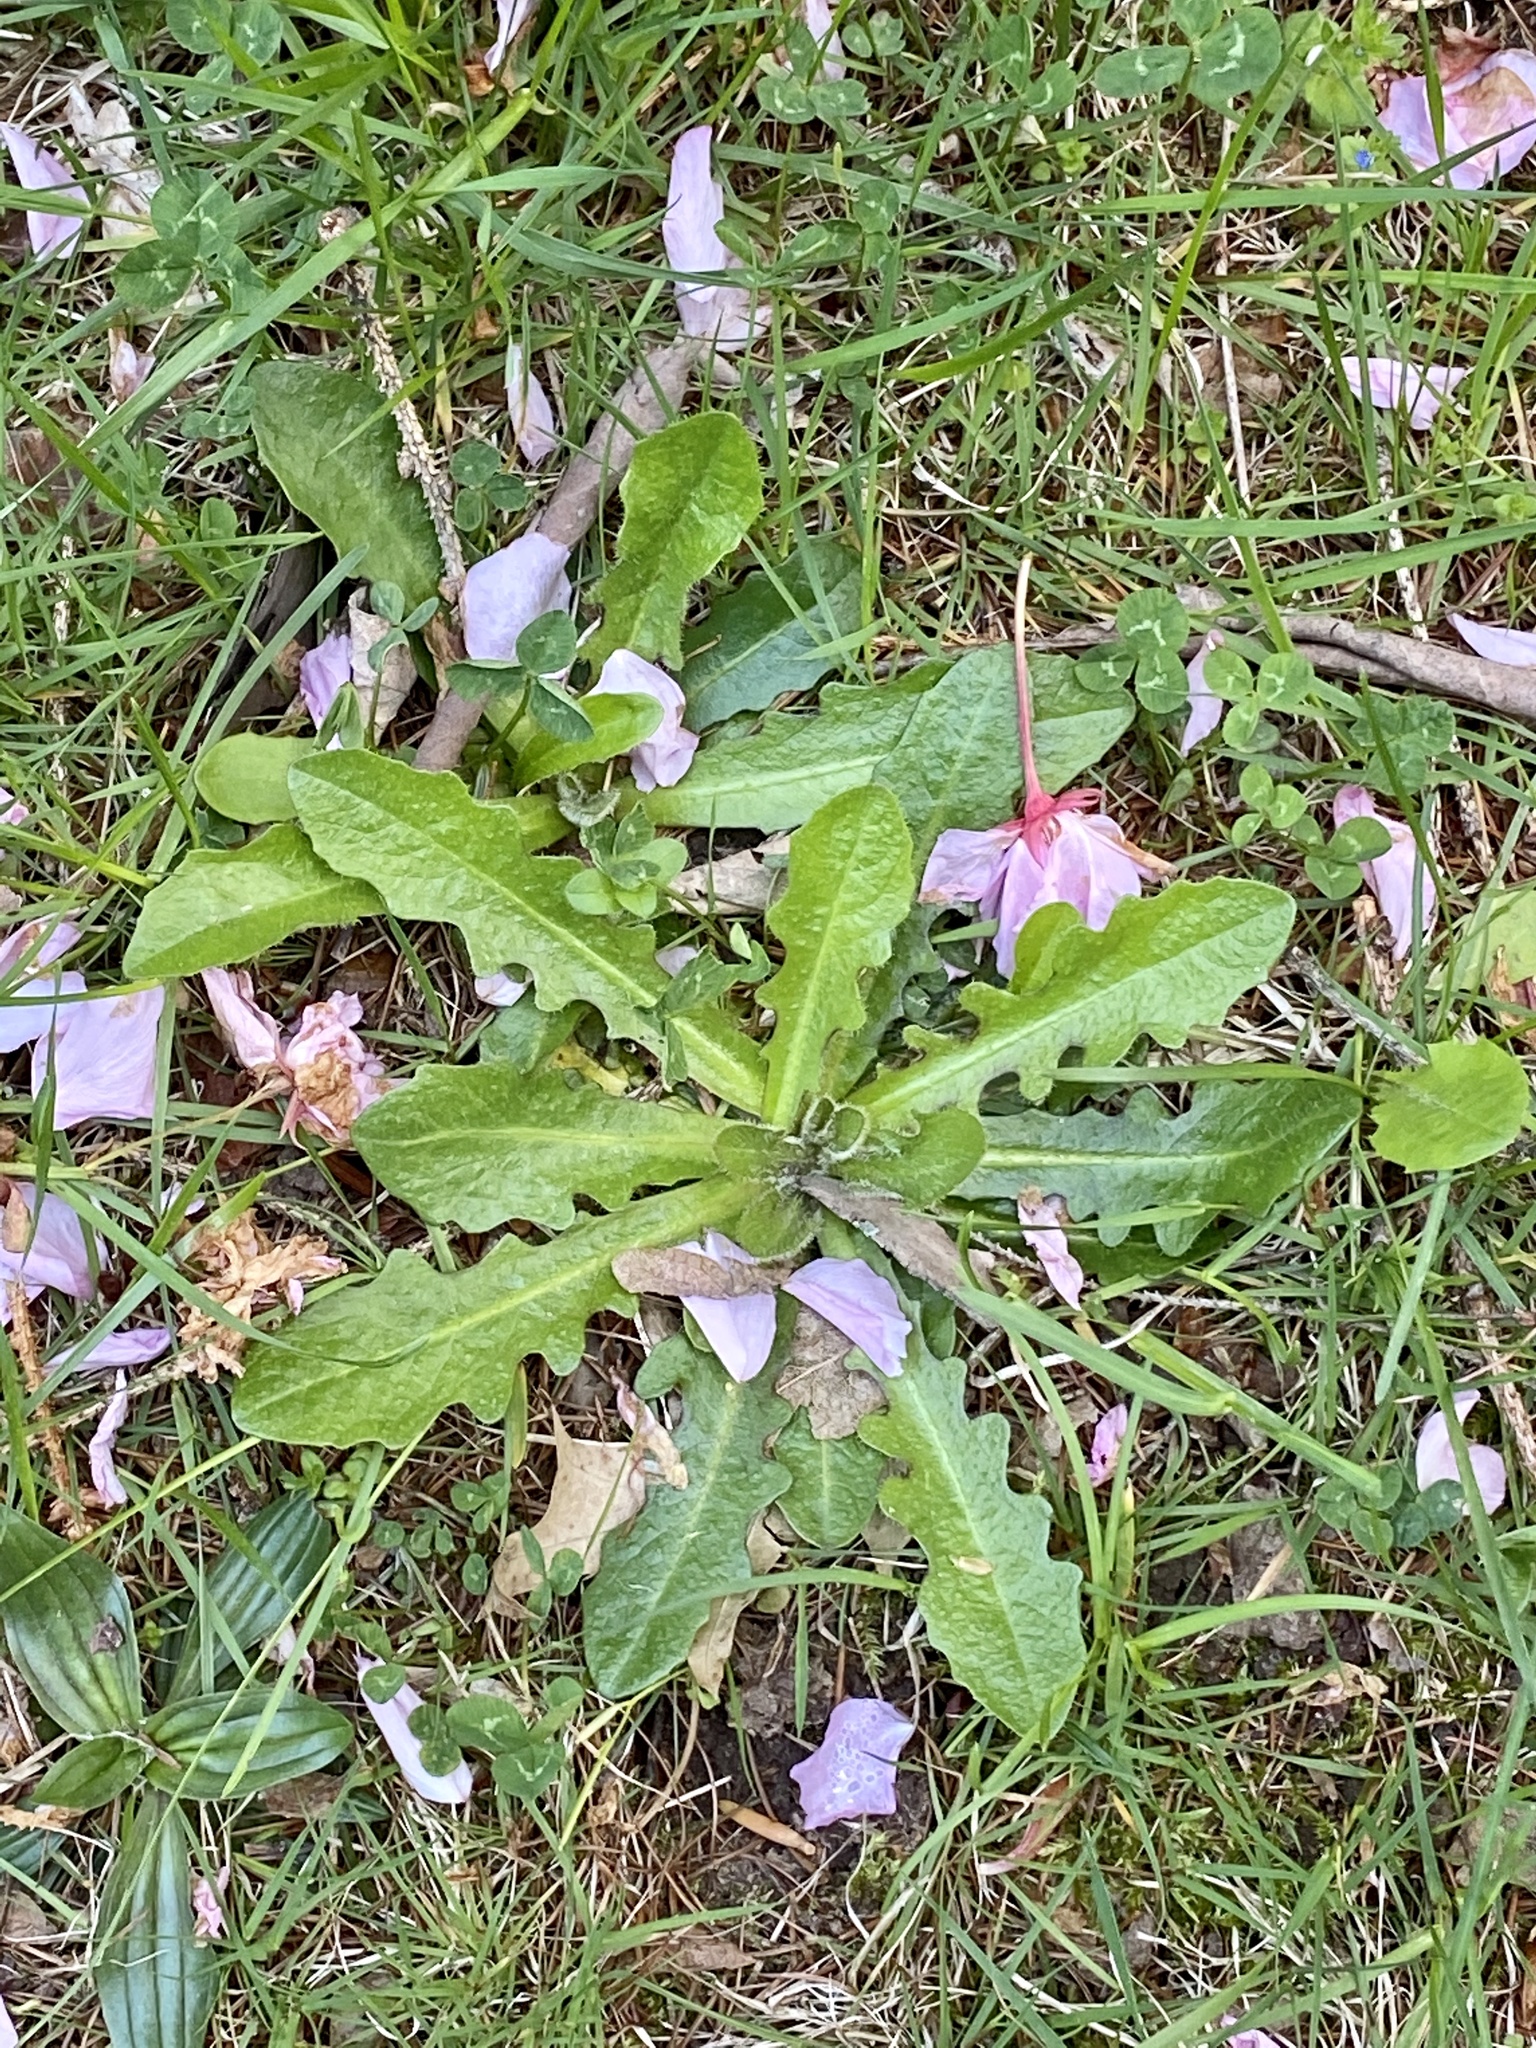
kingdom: Plantae
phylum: Tracheophyta
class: Magnoliopsida
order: Asterales
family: Asteraceae
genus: Hypochaeris
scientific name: Hypochaeris radicata
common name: Flatweed
